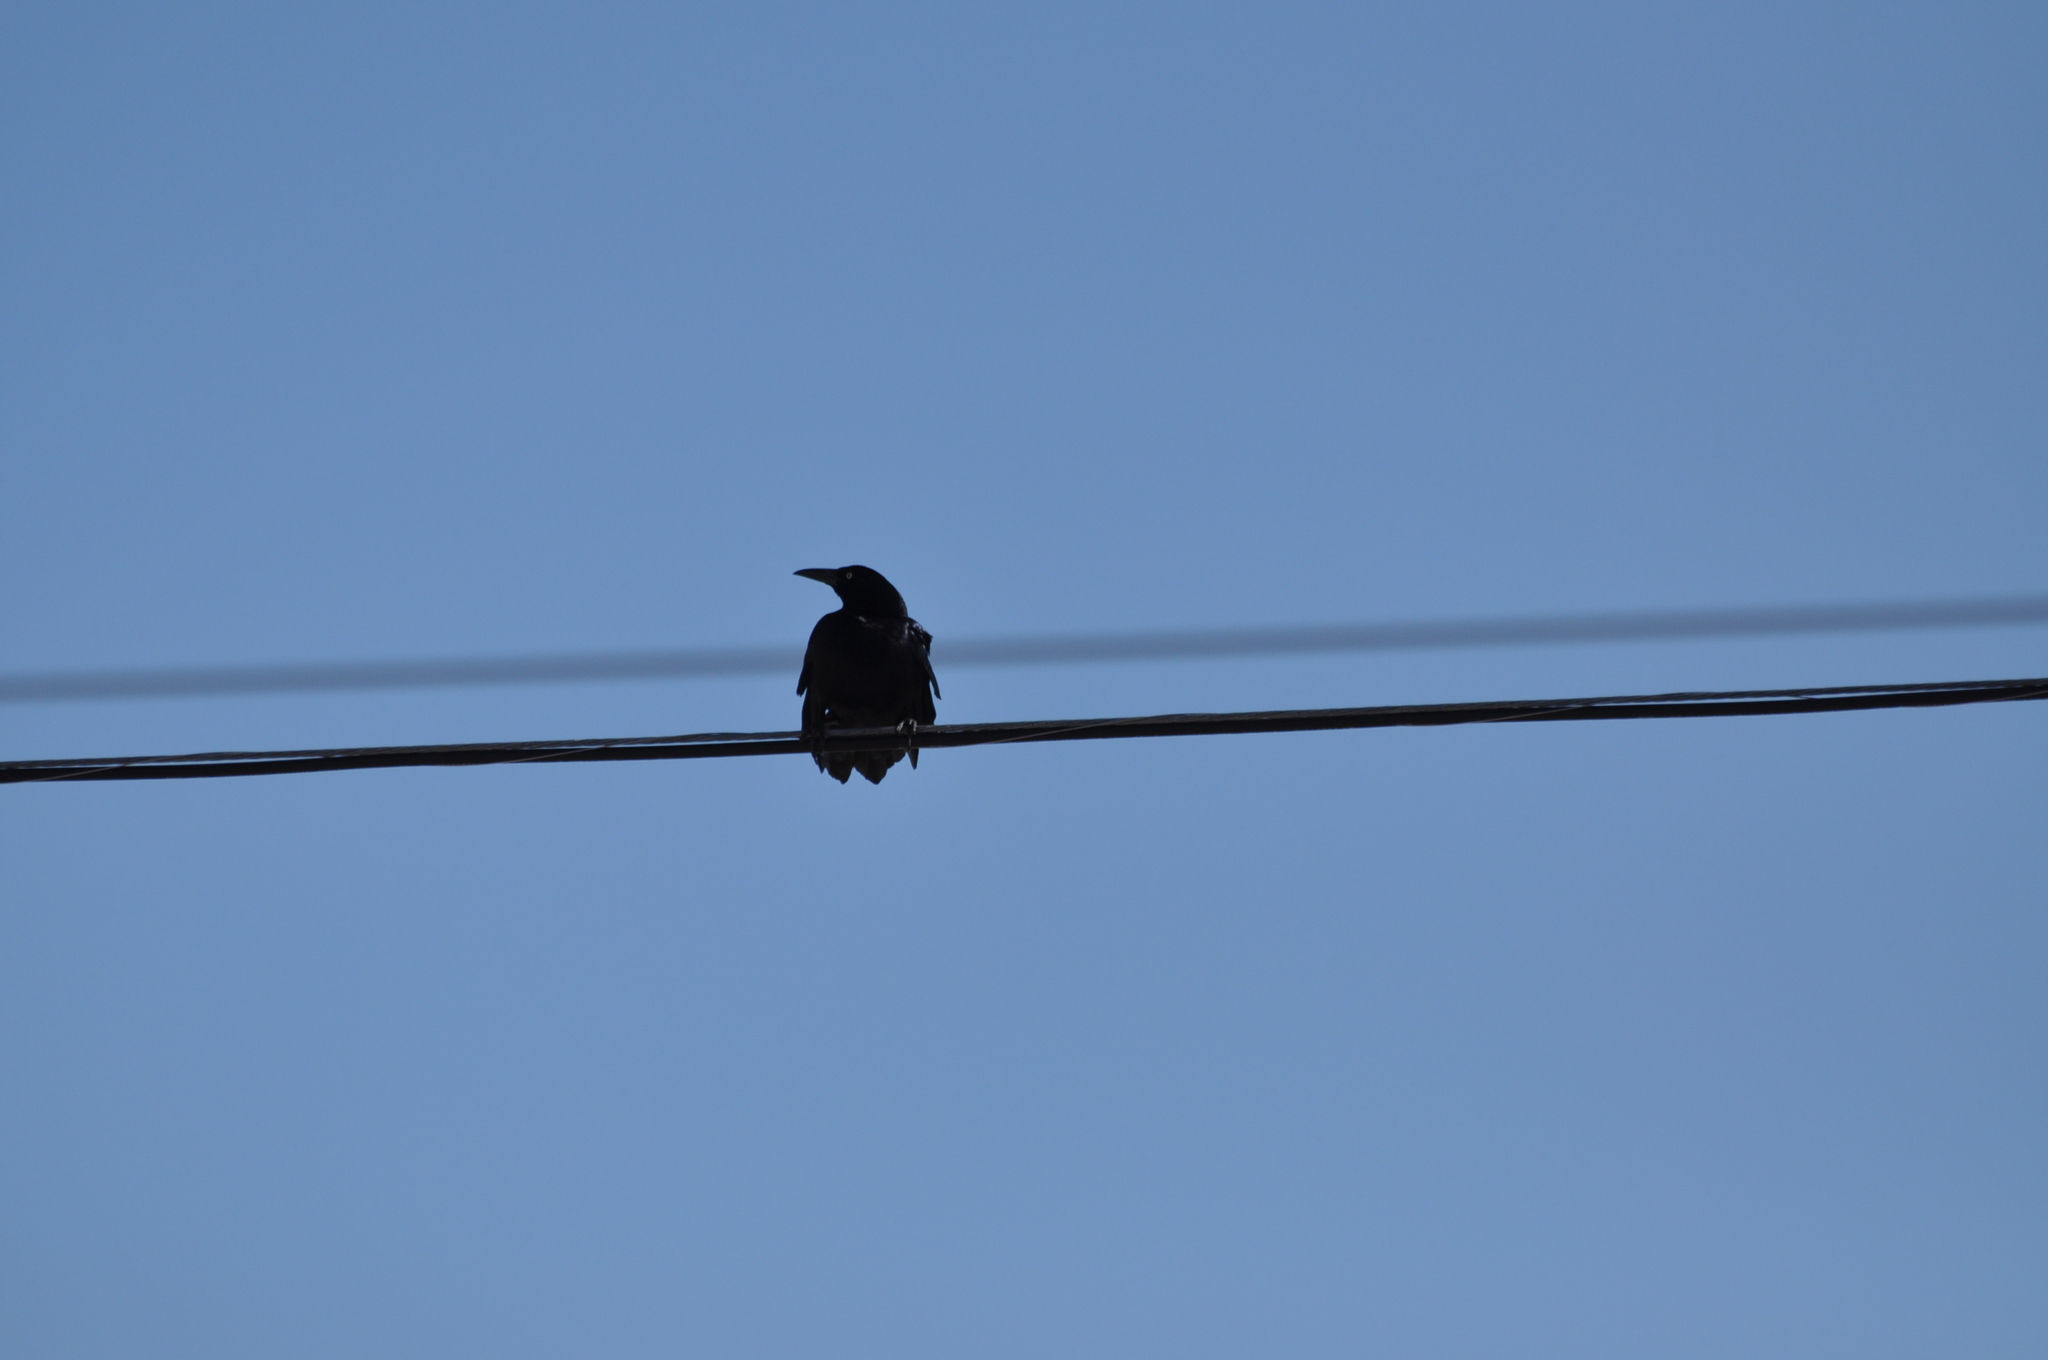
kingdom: Animalia
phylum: Chordata
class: Aves
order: Passeriformes
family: Icteridae
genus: Quiscalus
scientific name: Quiscalus mexicanus
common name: Great-tailed grackle
